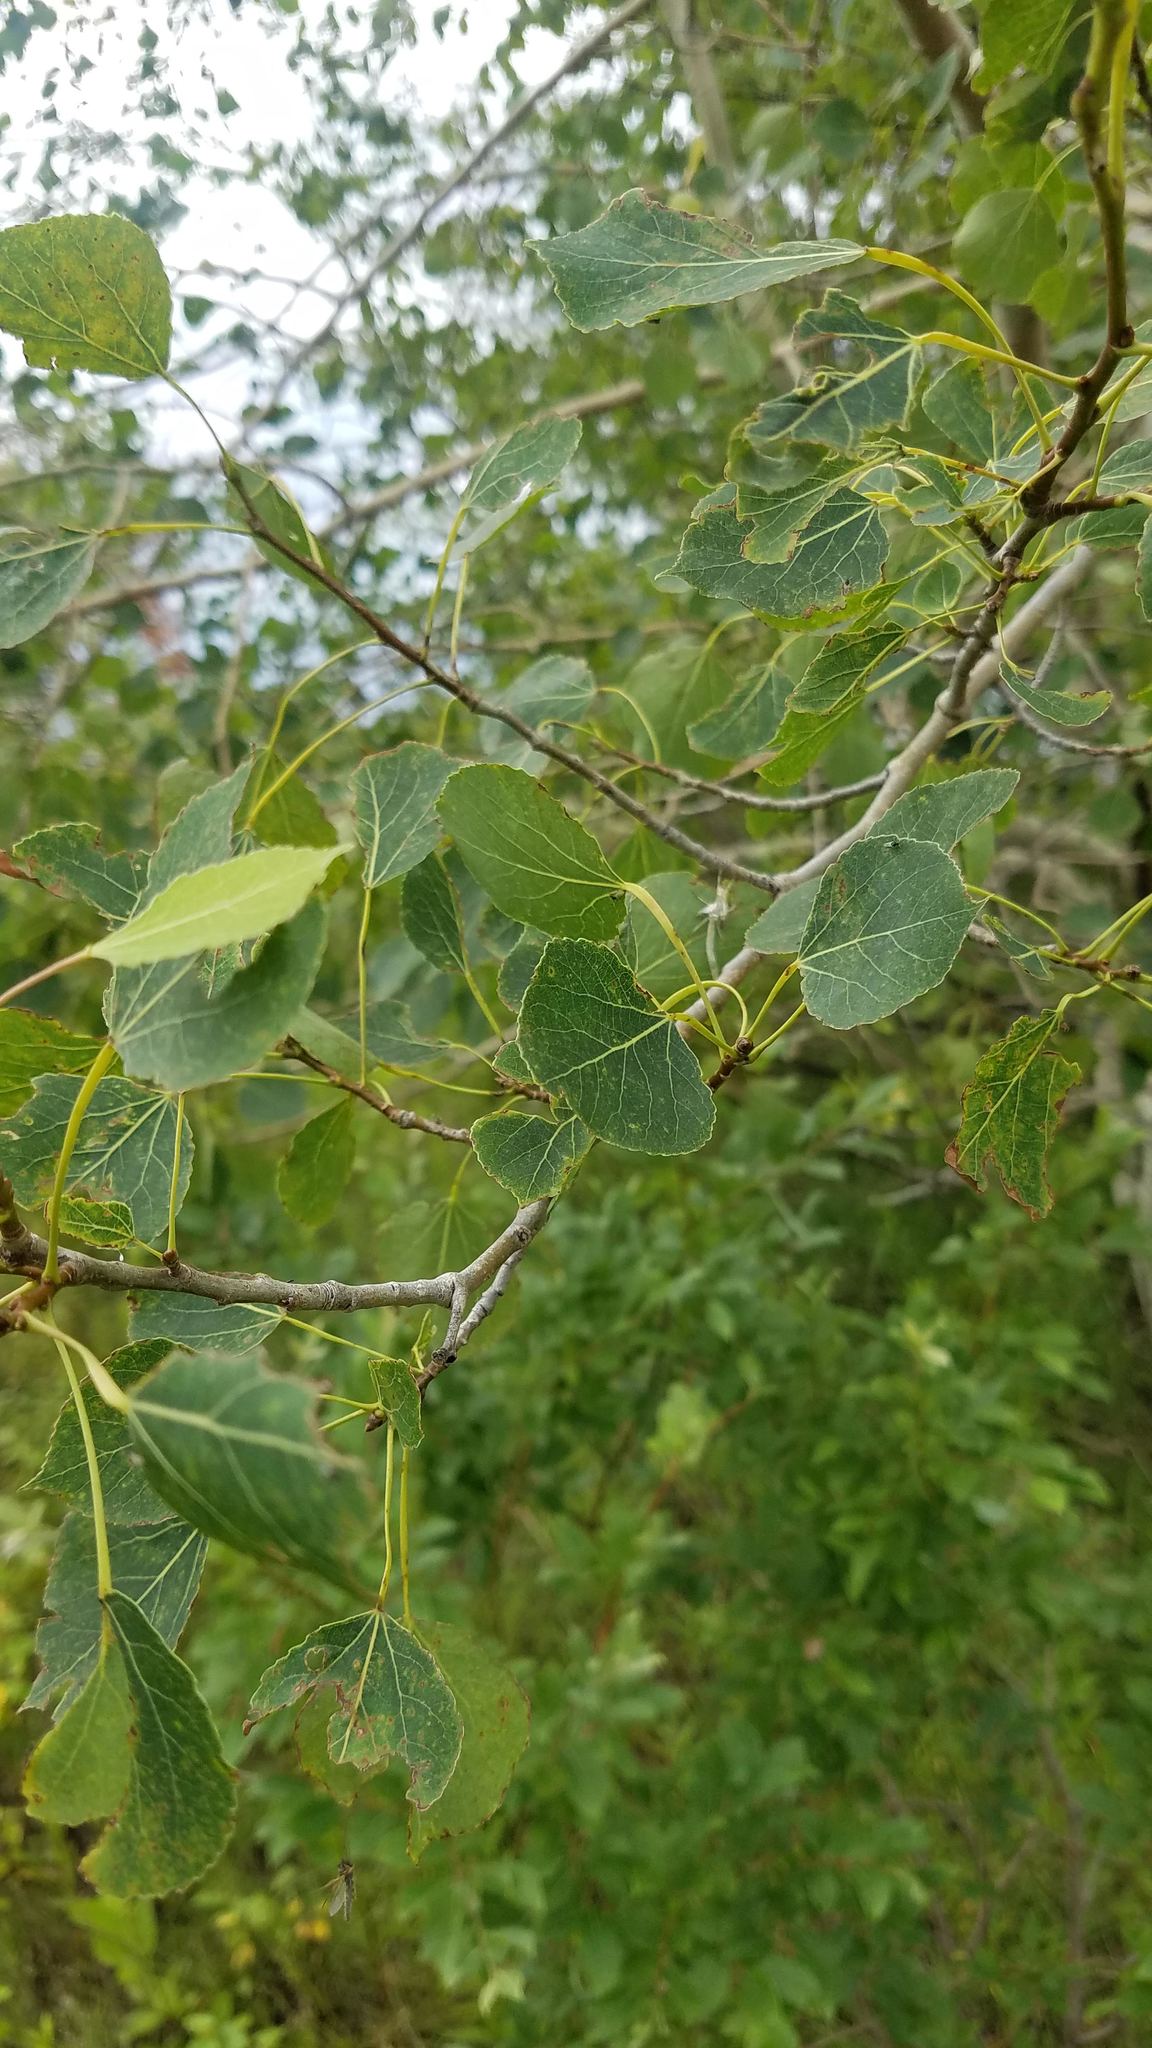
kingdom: Plantae
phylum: Tracheophyta
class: Magnoliopsida
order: Malpighiales
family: Salicaceae
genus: Populus
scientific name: Populus tremuloides
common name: Quaking aspen
